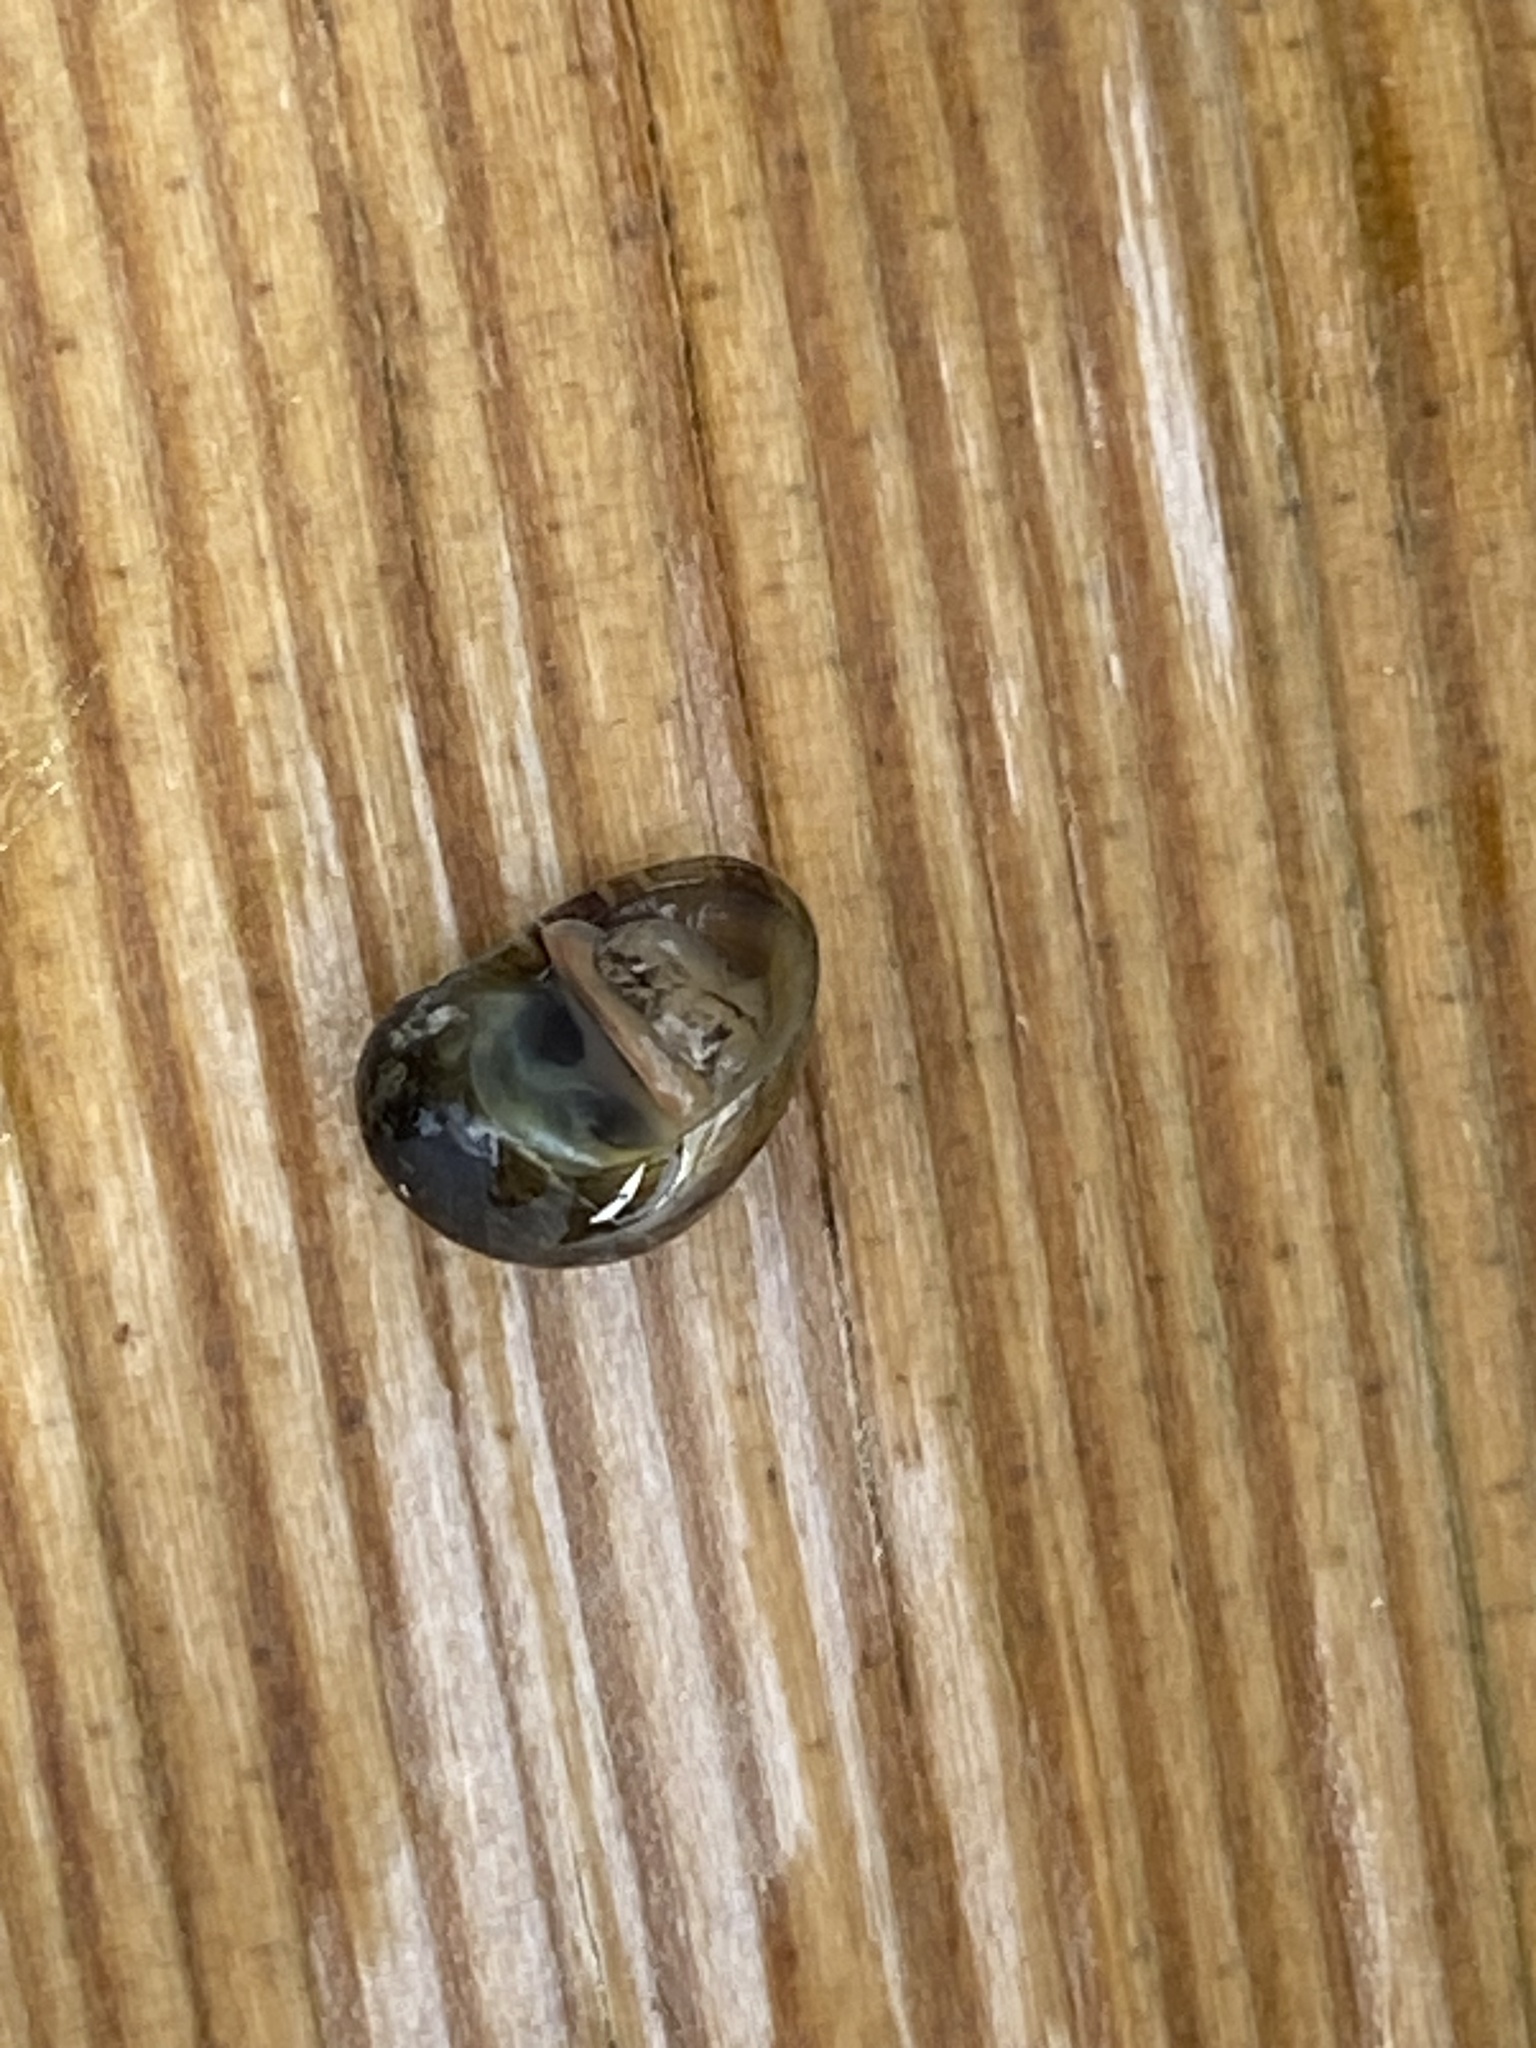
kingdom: Animalia
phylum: Mollusca
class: Gastropoda
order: Cycloneritida
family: Neritidae
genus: Theodoxus
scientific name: Theodoxus fluviatilis
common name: River nerite
